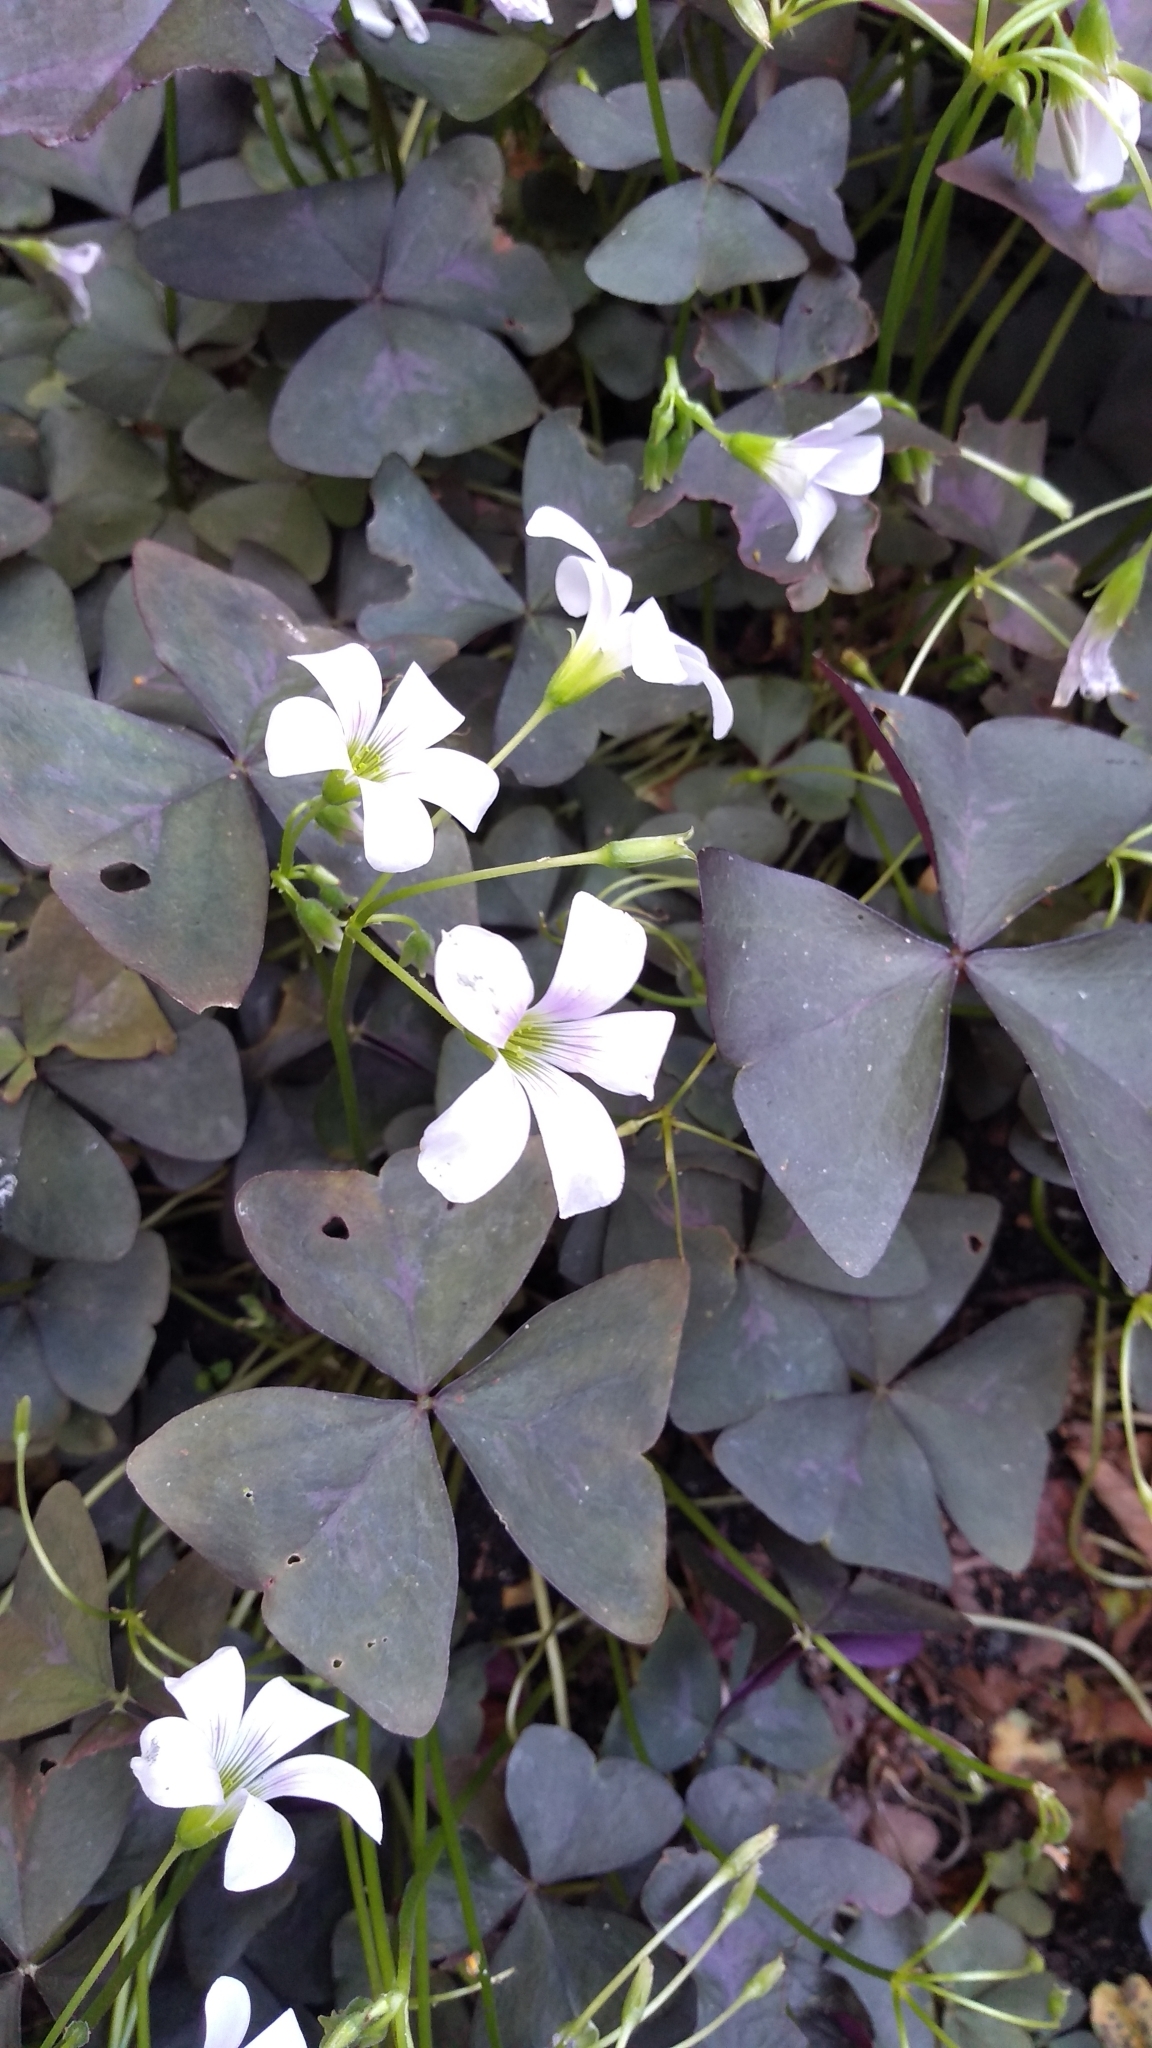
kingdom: Plantae
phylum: Tracheophyta
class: Magnoliopsida
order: Oxalidales
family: Oxalidaceae
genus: Oxalis
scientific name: Oxalis triangularis
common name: Wood sorrel
